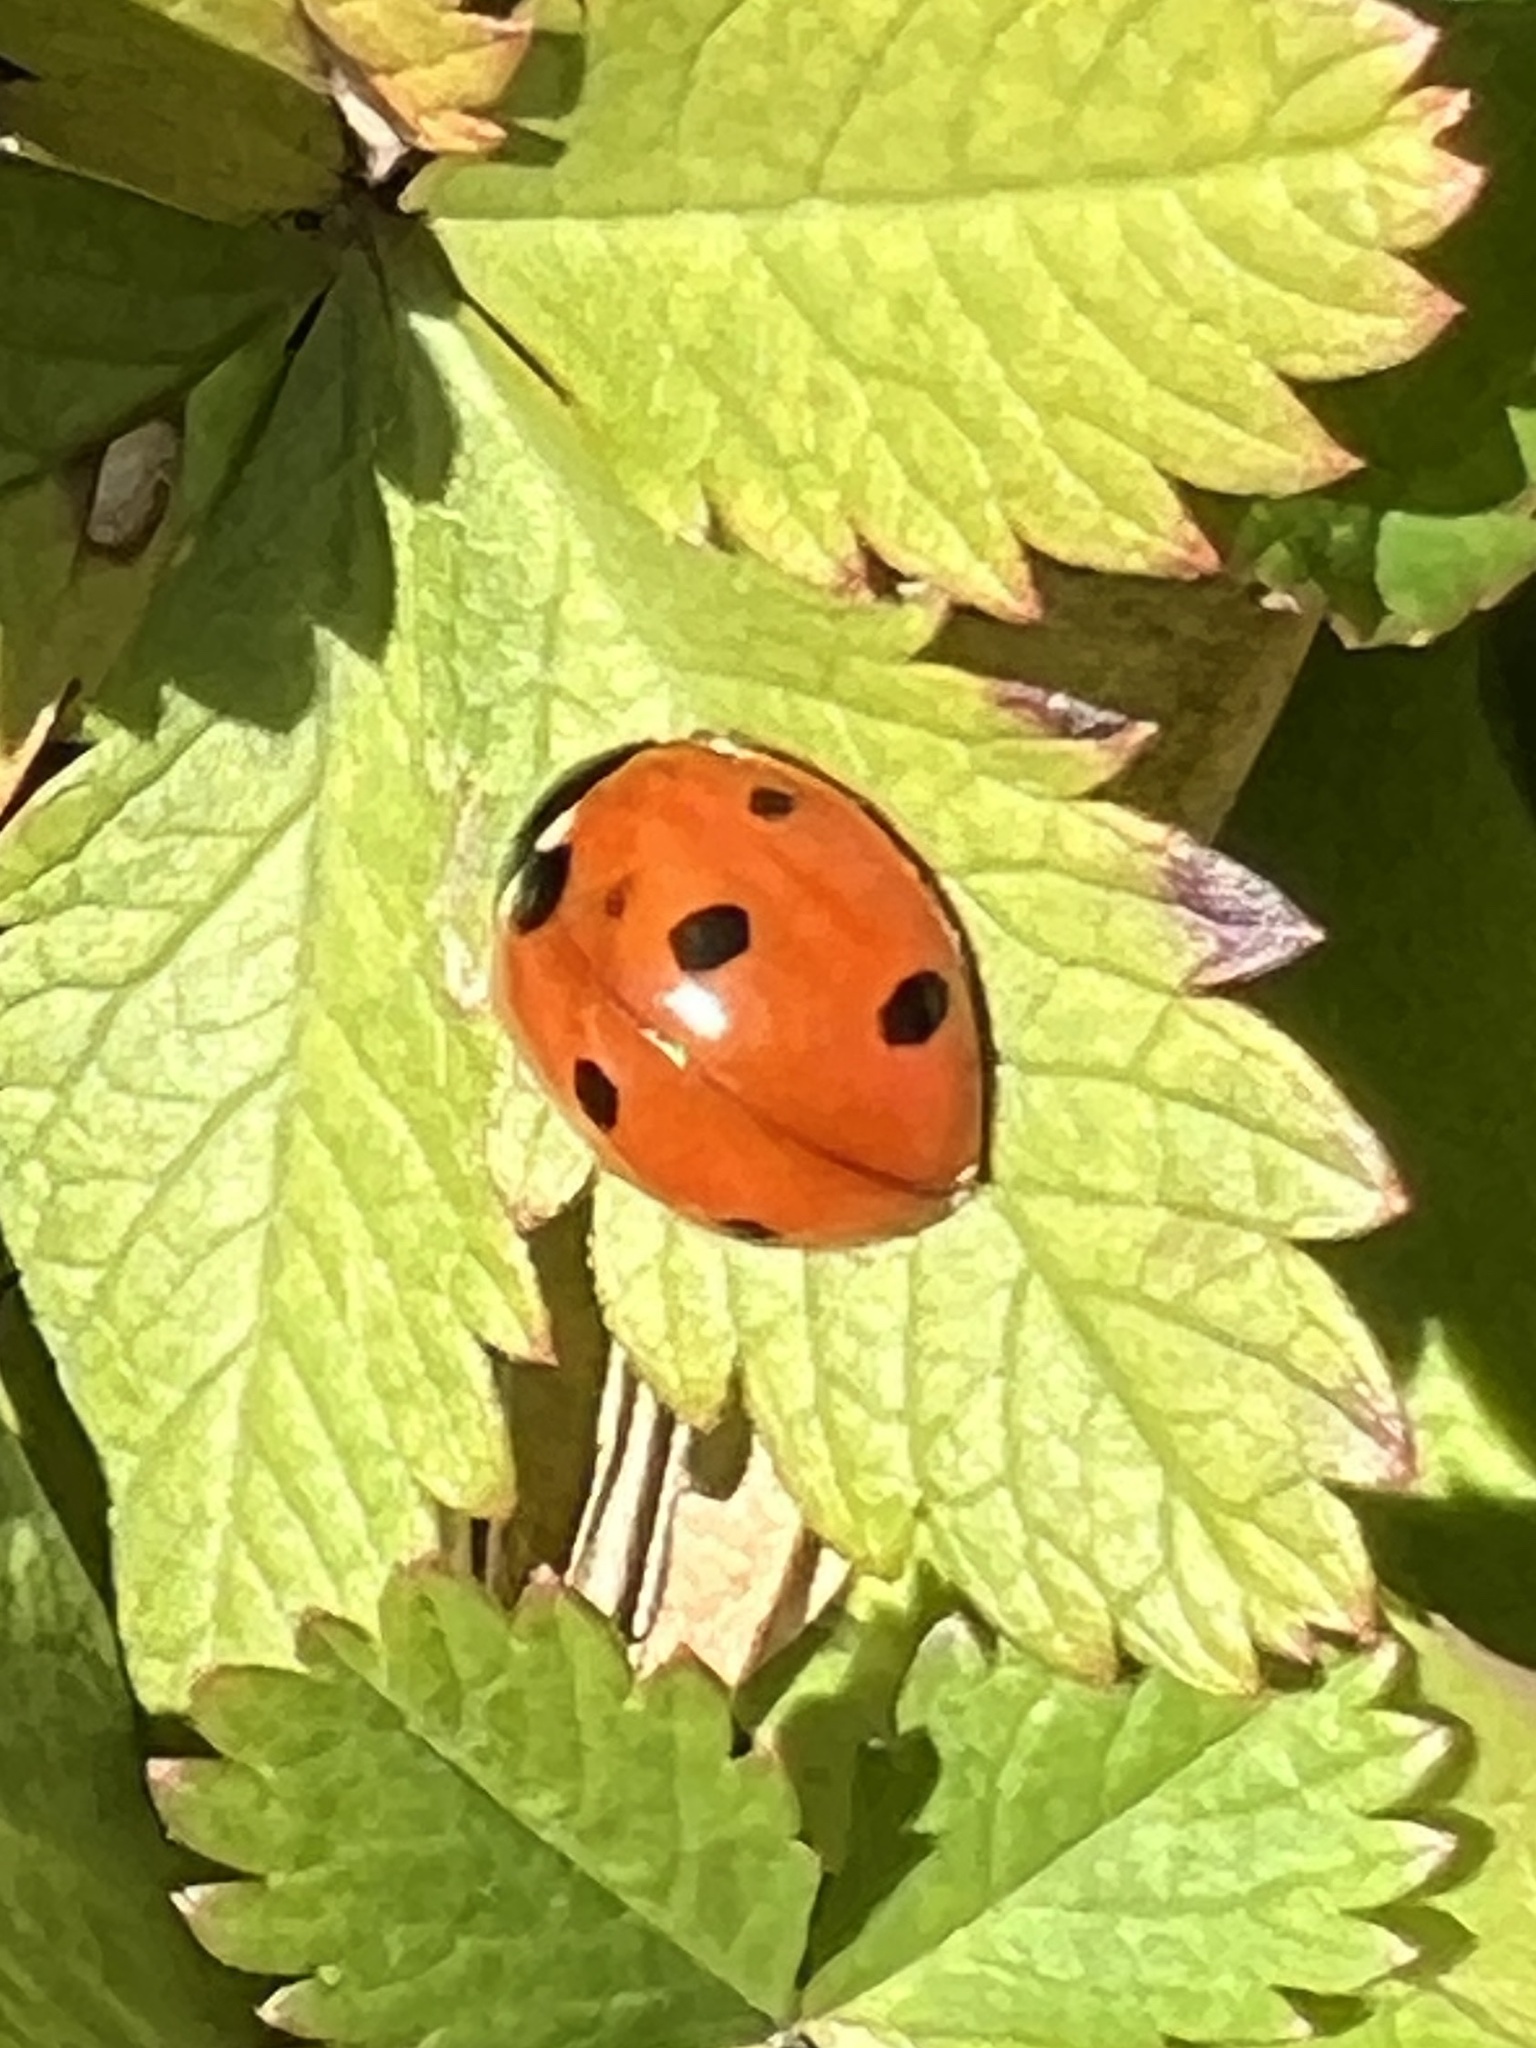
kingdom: Animalia
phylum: Arthropoda
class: Insecta
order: Coleoptera
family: Coccinellidae
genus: Coccinella
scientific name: Coccinella septempunctata
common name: Sevenspotted lady beetle
